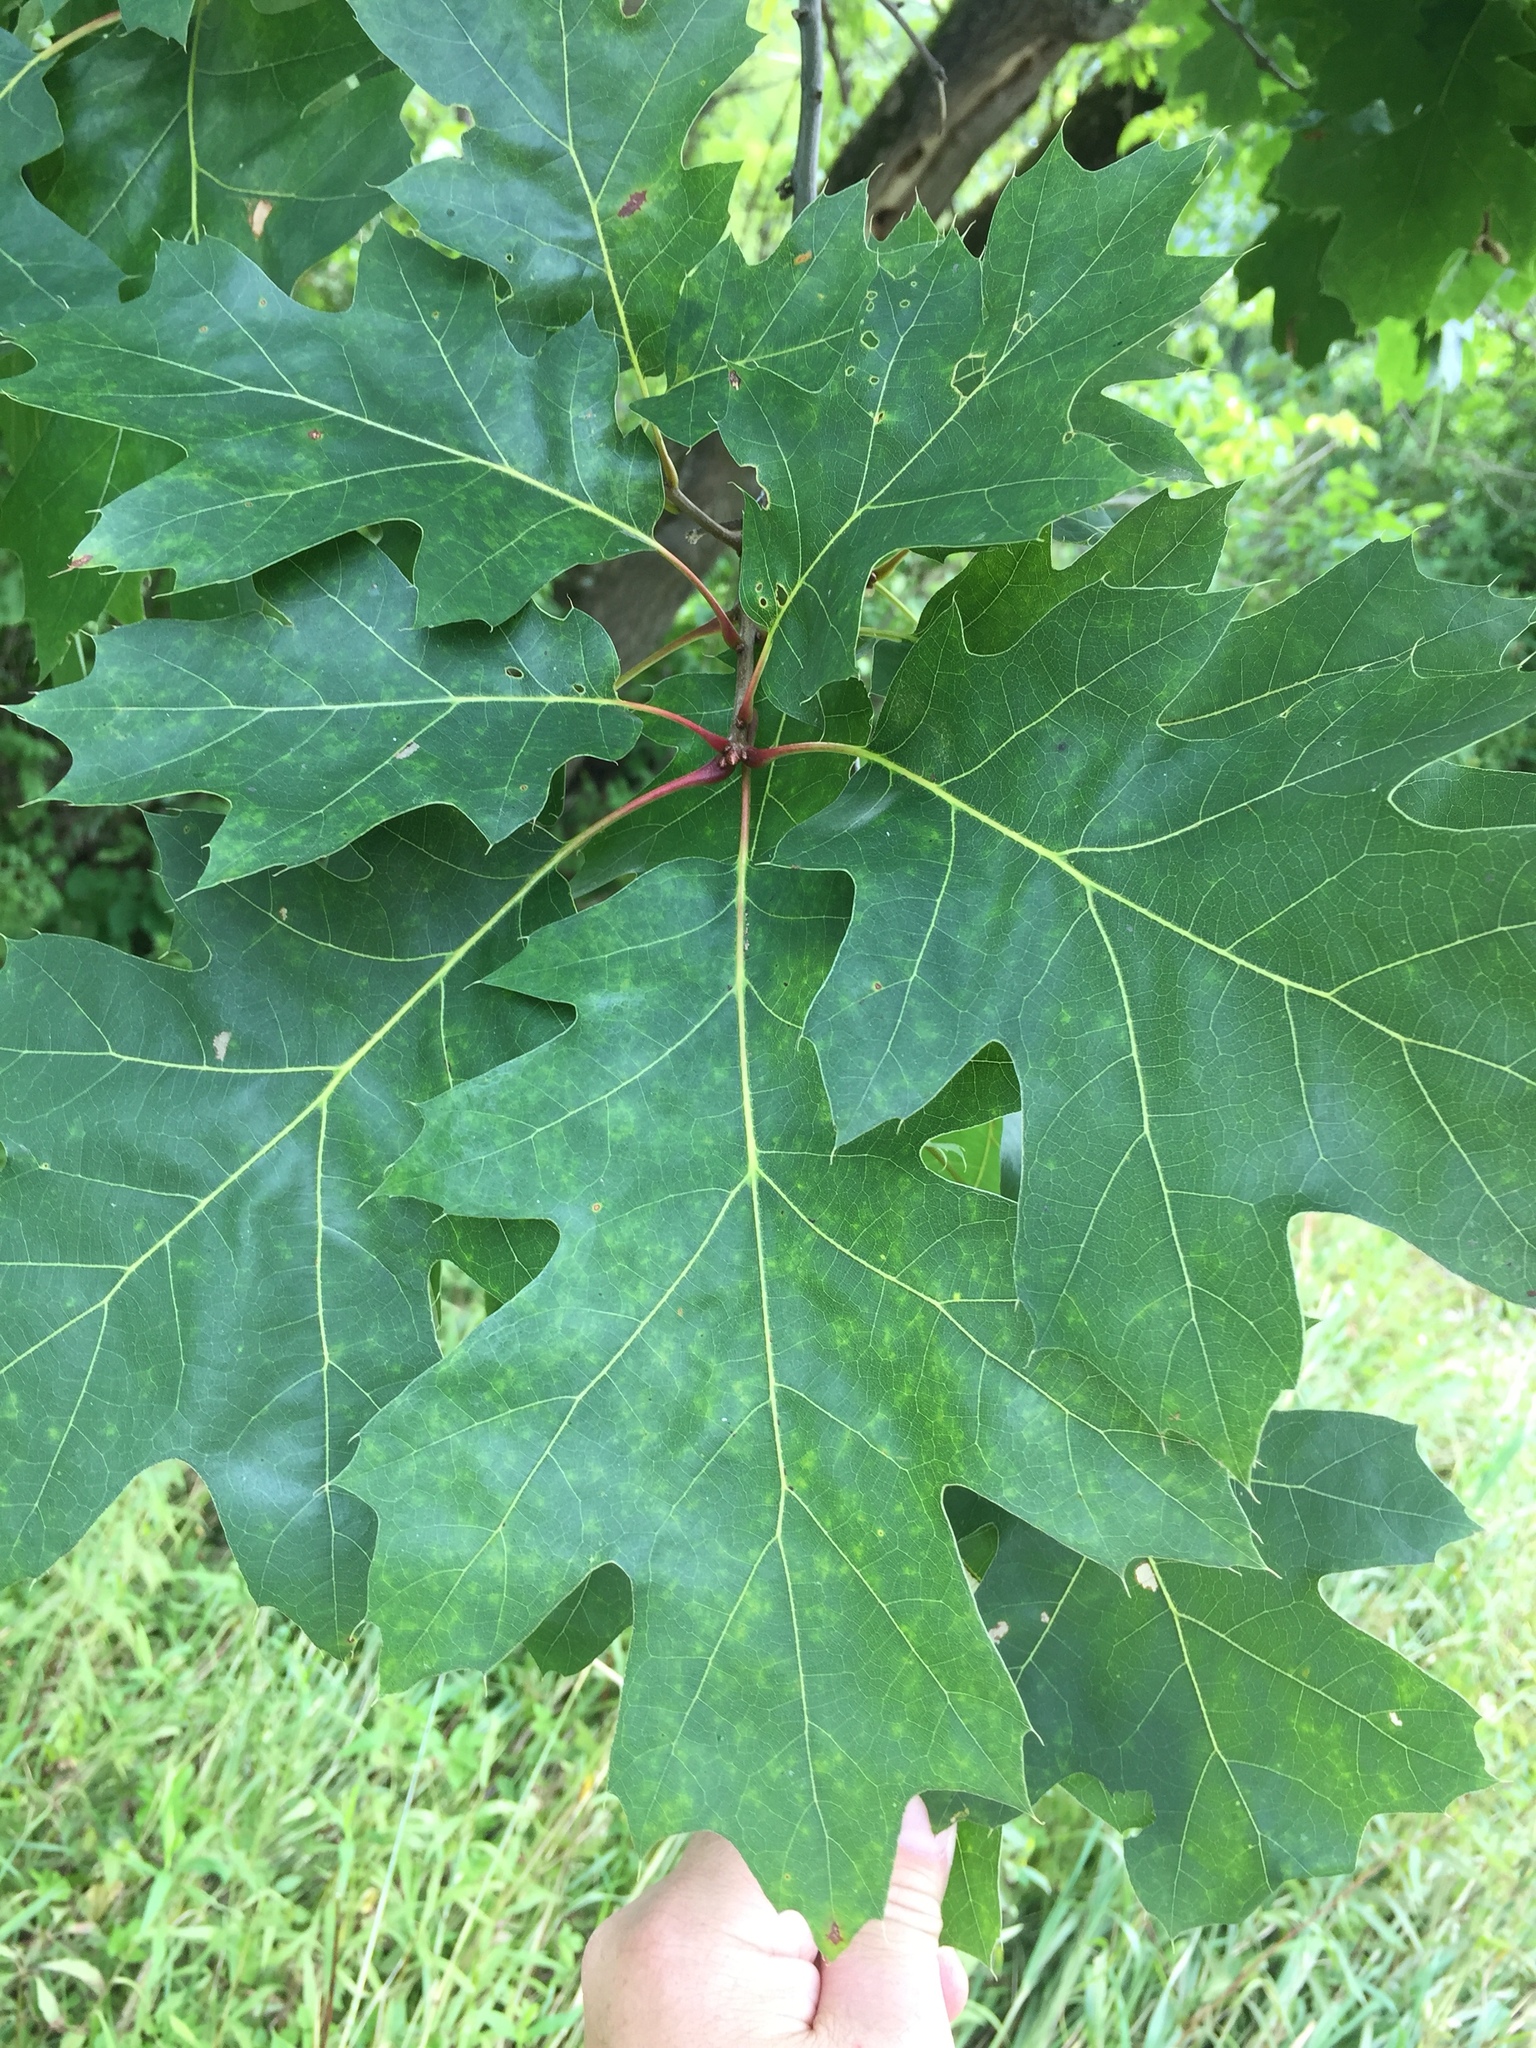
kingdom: Plantae
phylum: Tracheophyta
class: Magnoliopsida
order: Fagales
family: Fagaceae
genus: Quercus
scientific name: Quercus rubra
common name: Red oak
